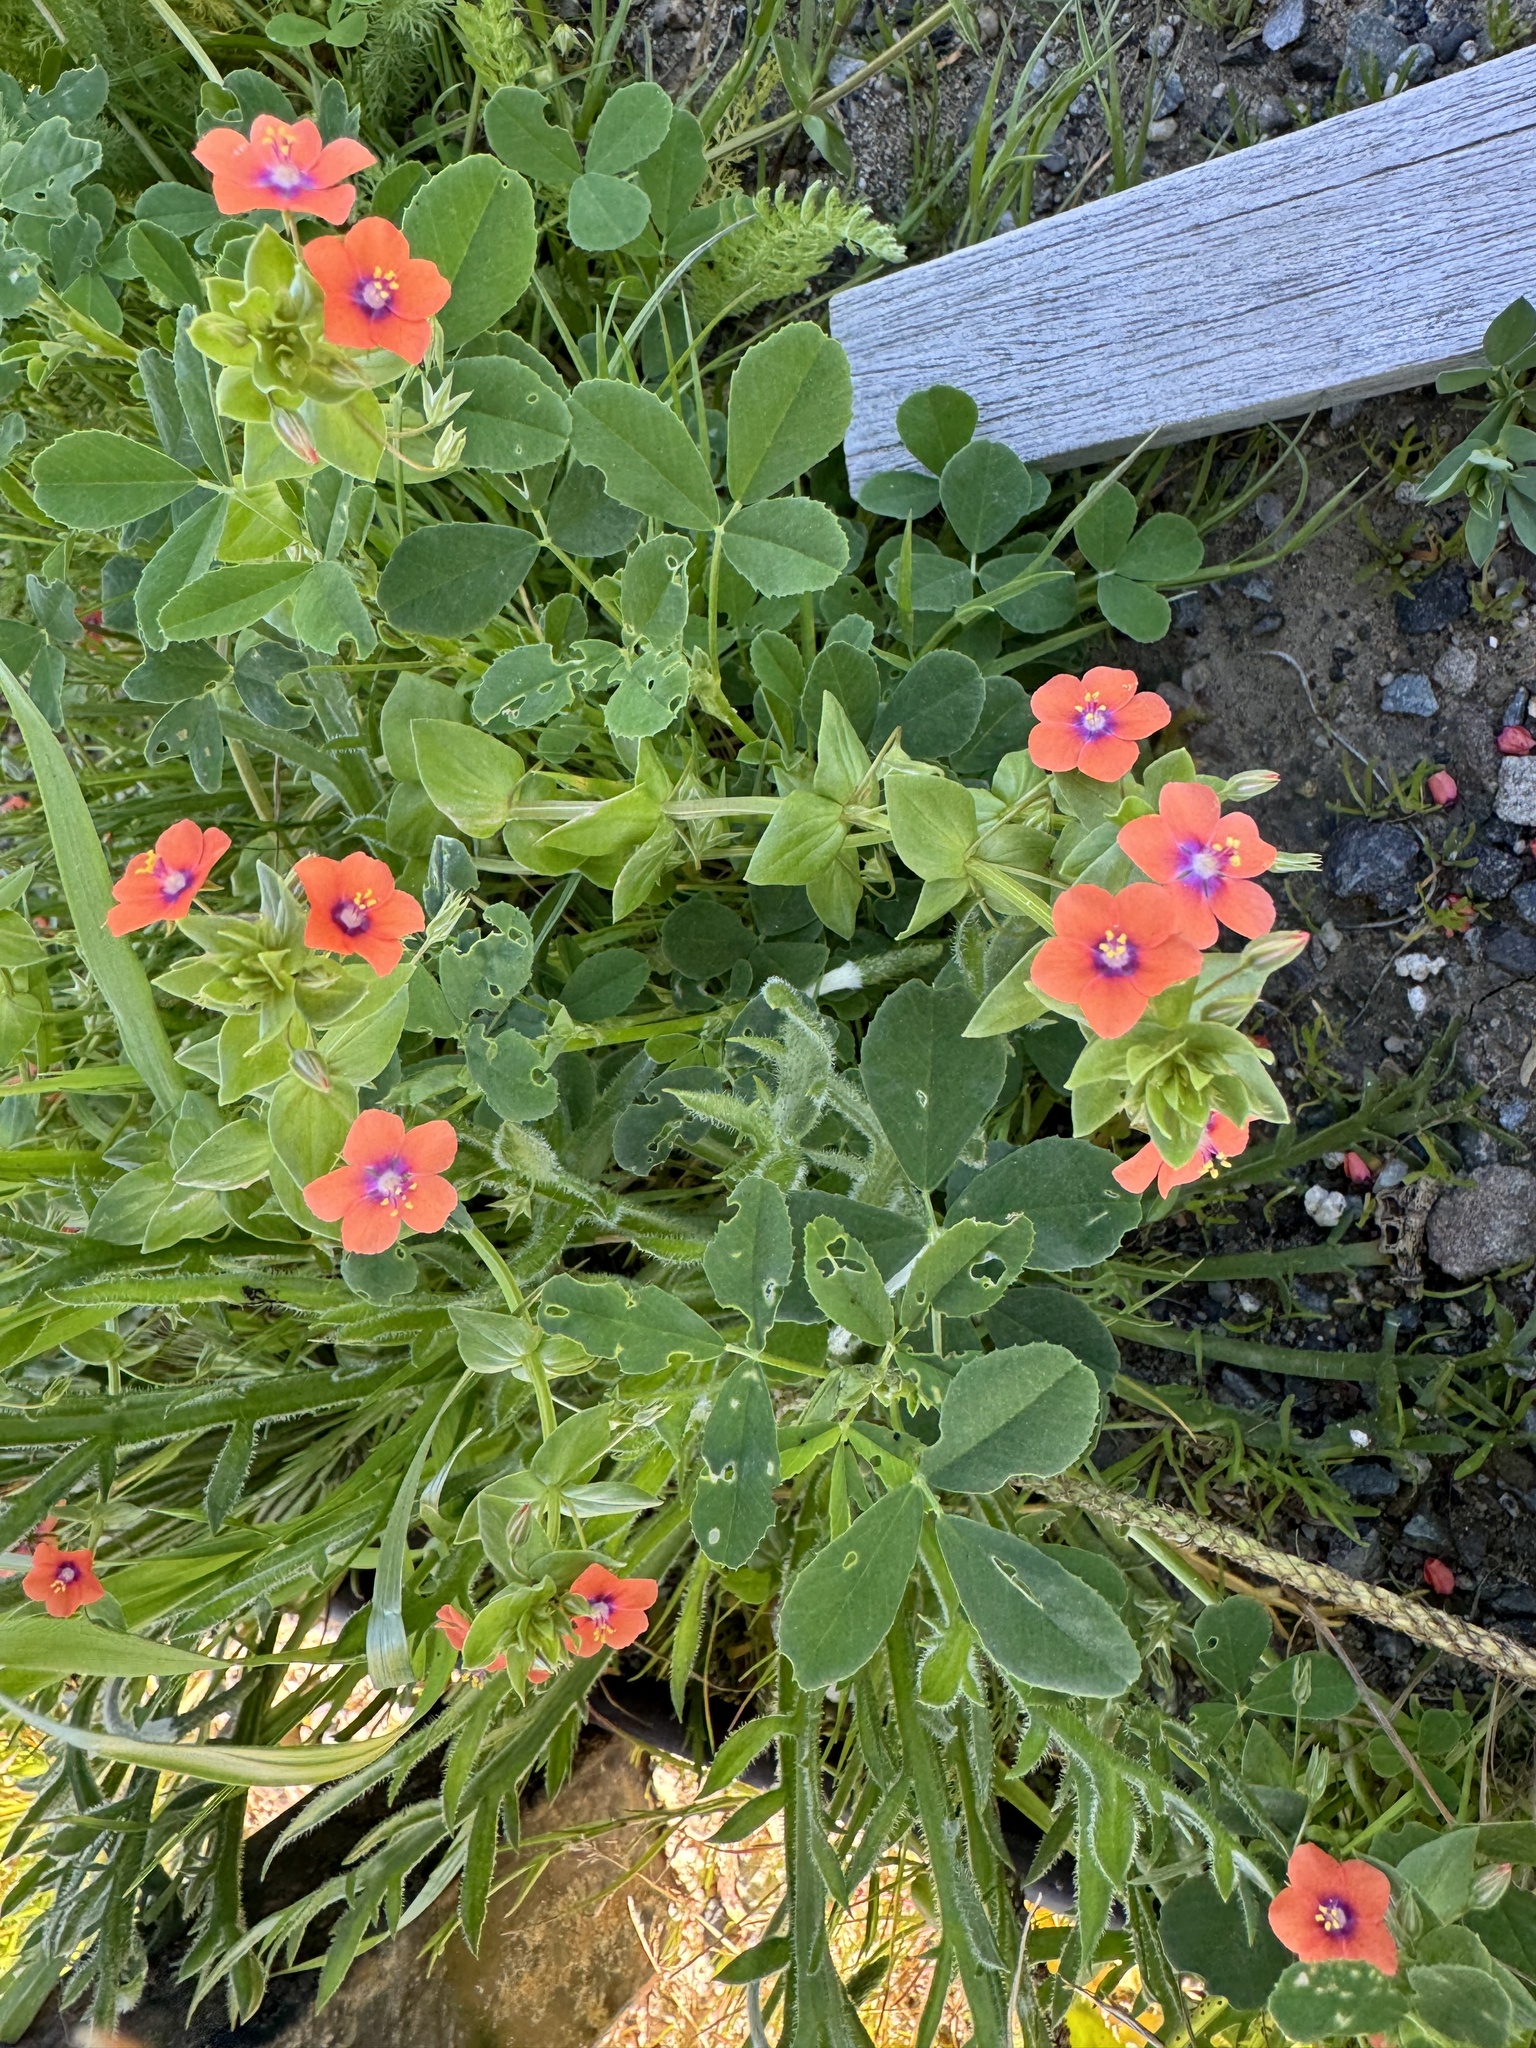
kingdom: Plantae
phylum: Tracheophyta
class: Magnoliopsida
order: Ericales
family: Primulaceae
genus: Lysimachia
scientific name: Lysimachia arvensis
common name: Scarlet pimpernel
